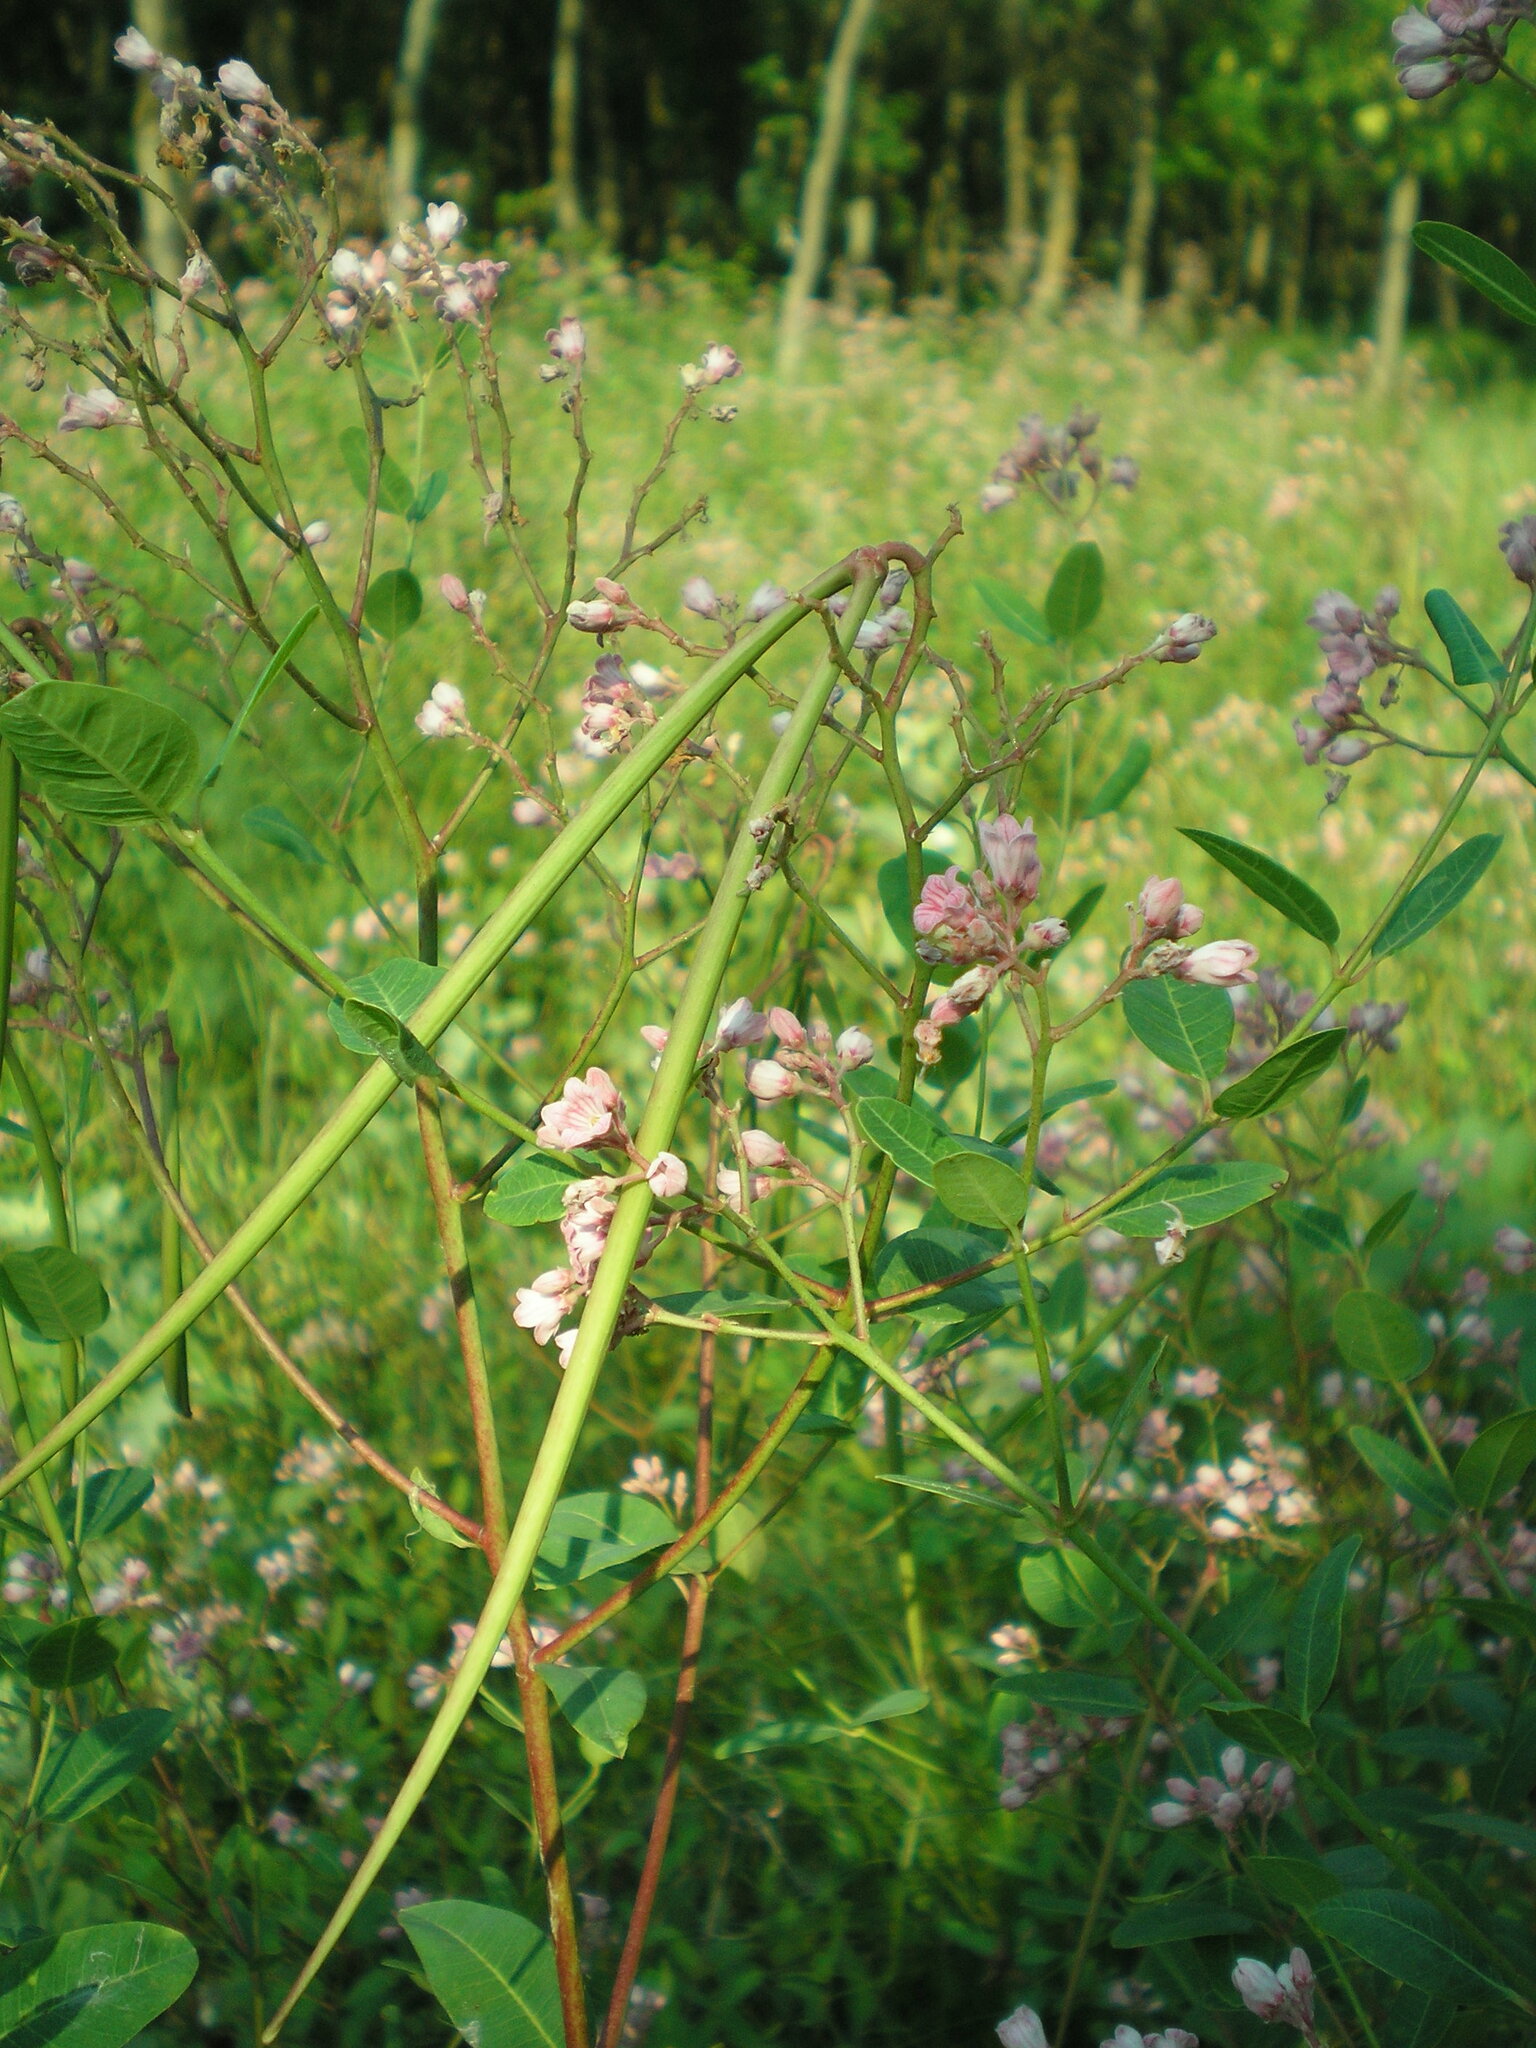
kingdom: Plantae
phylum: Tracheophyta
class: Magnoliopsida
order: Gentianales
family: Apocynaceae
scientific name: Apocynaceae
